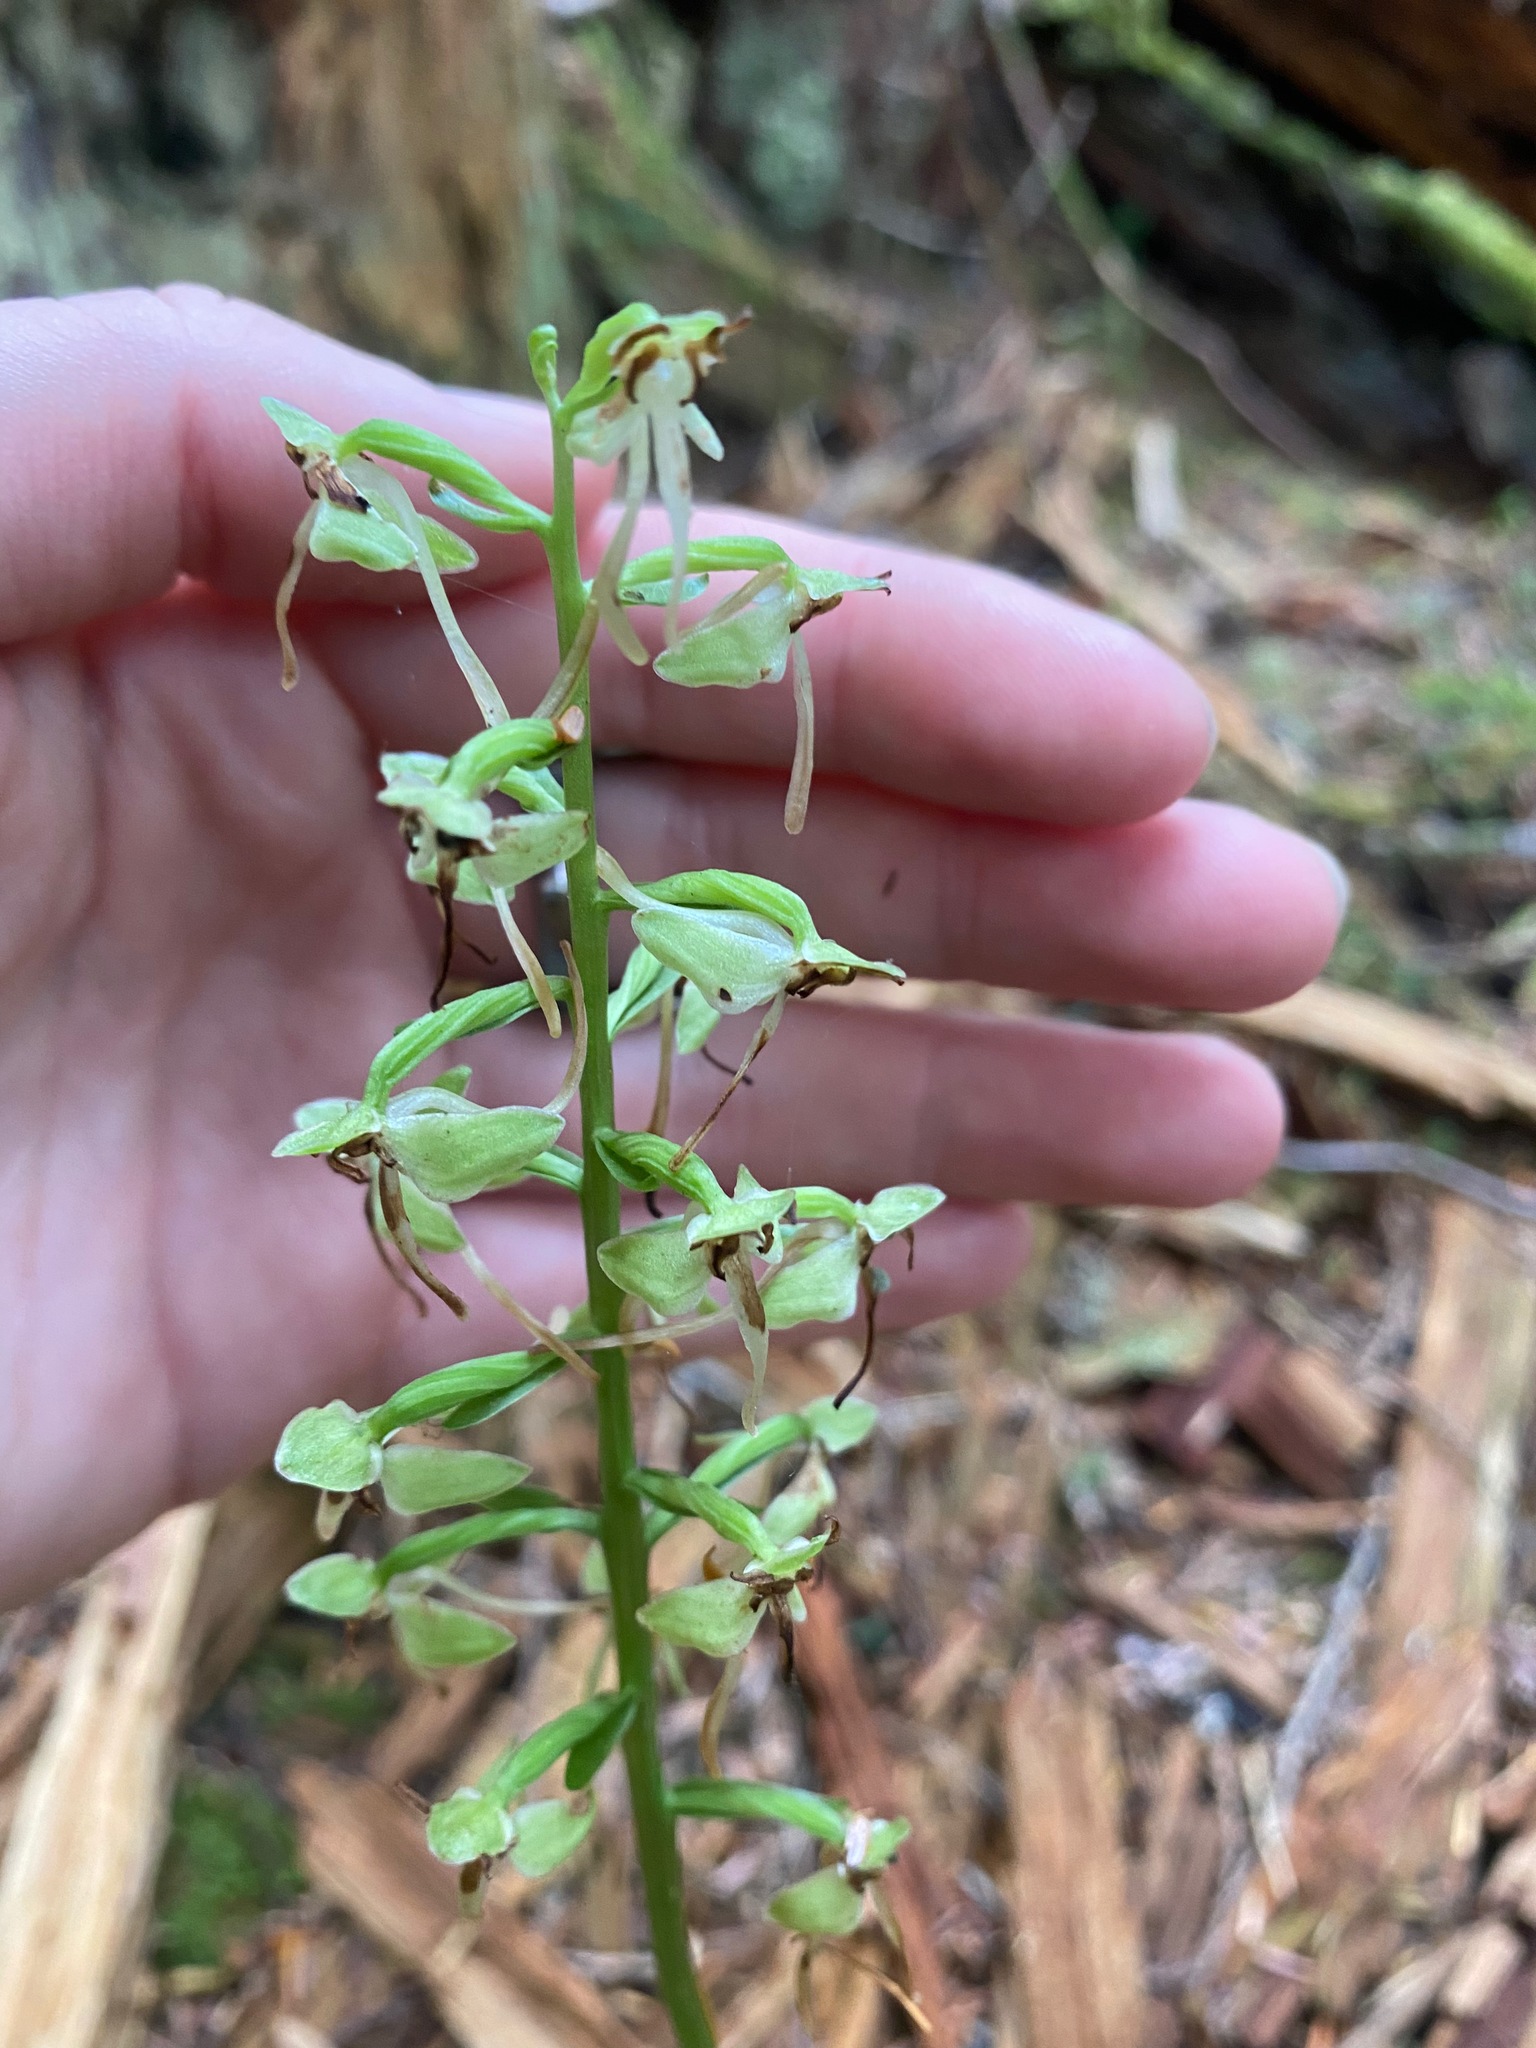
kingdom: Plantae
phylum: Tracheophyta
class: Liliopsida
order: Asparagales
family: Orchidaceae
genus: Platanthera
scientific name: Platanthera orbiculata
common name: Large round-leaved orchid
